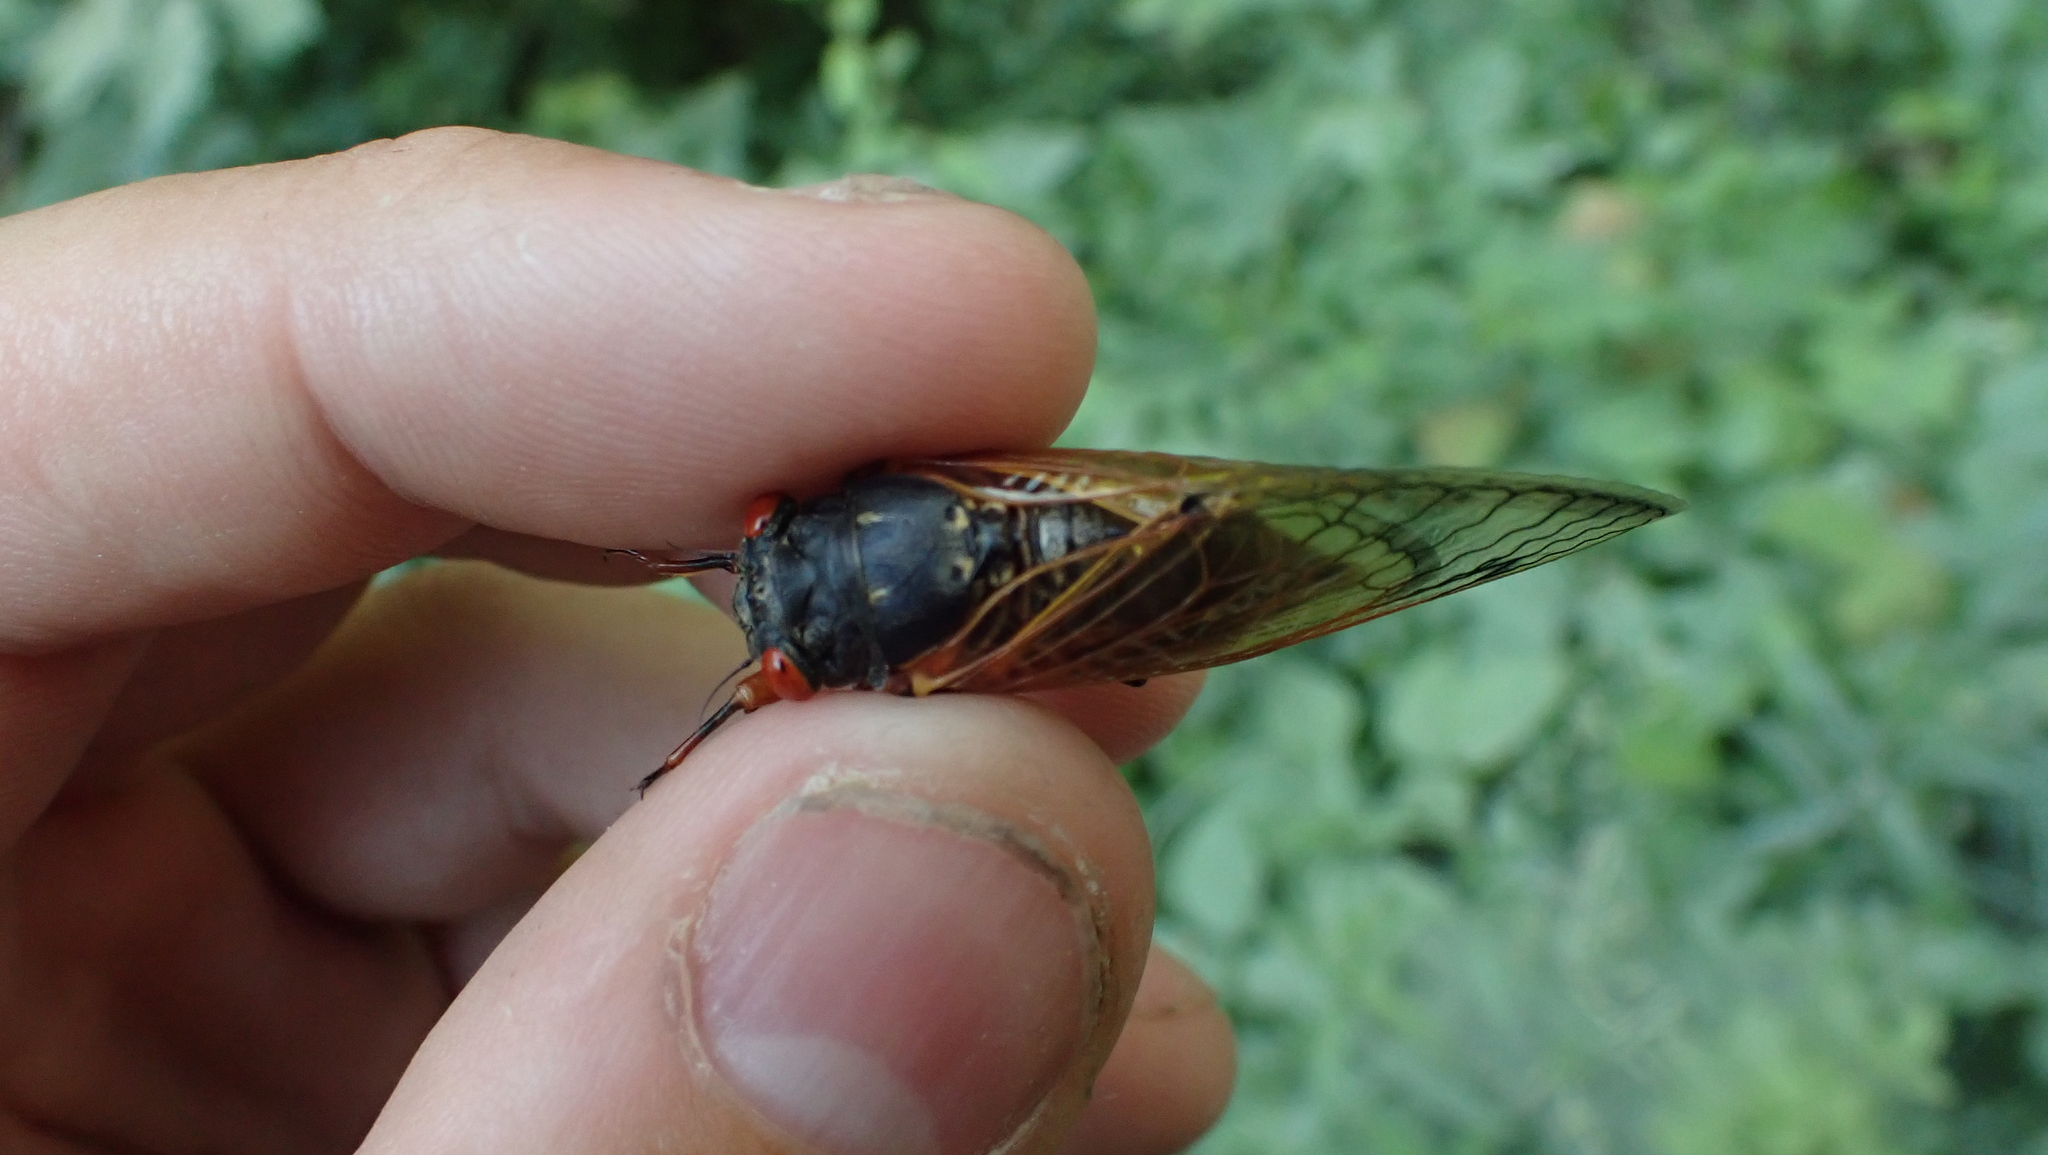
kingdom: Animalia
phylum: Arthropoda
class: Insecta
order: Hemiptera
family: Cicadidae
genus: Magicicada
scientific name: Magicicada cassini
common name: Cassin's 17-year cicada
